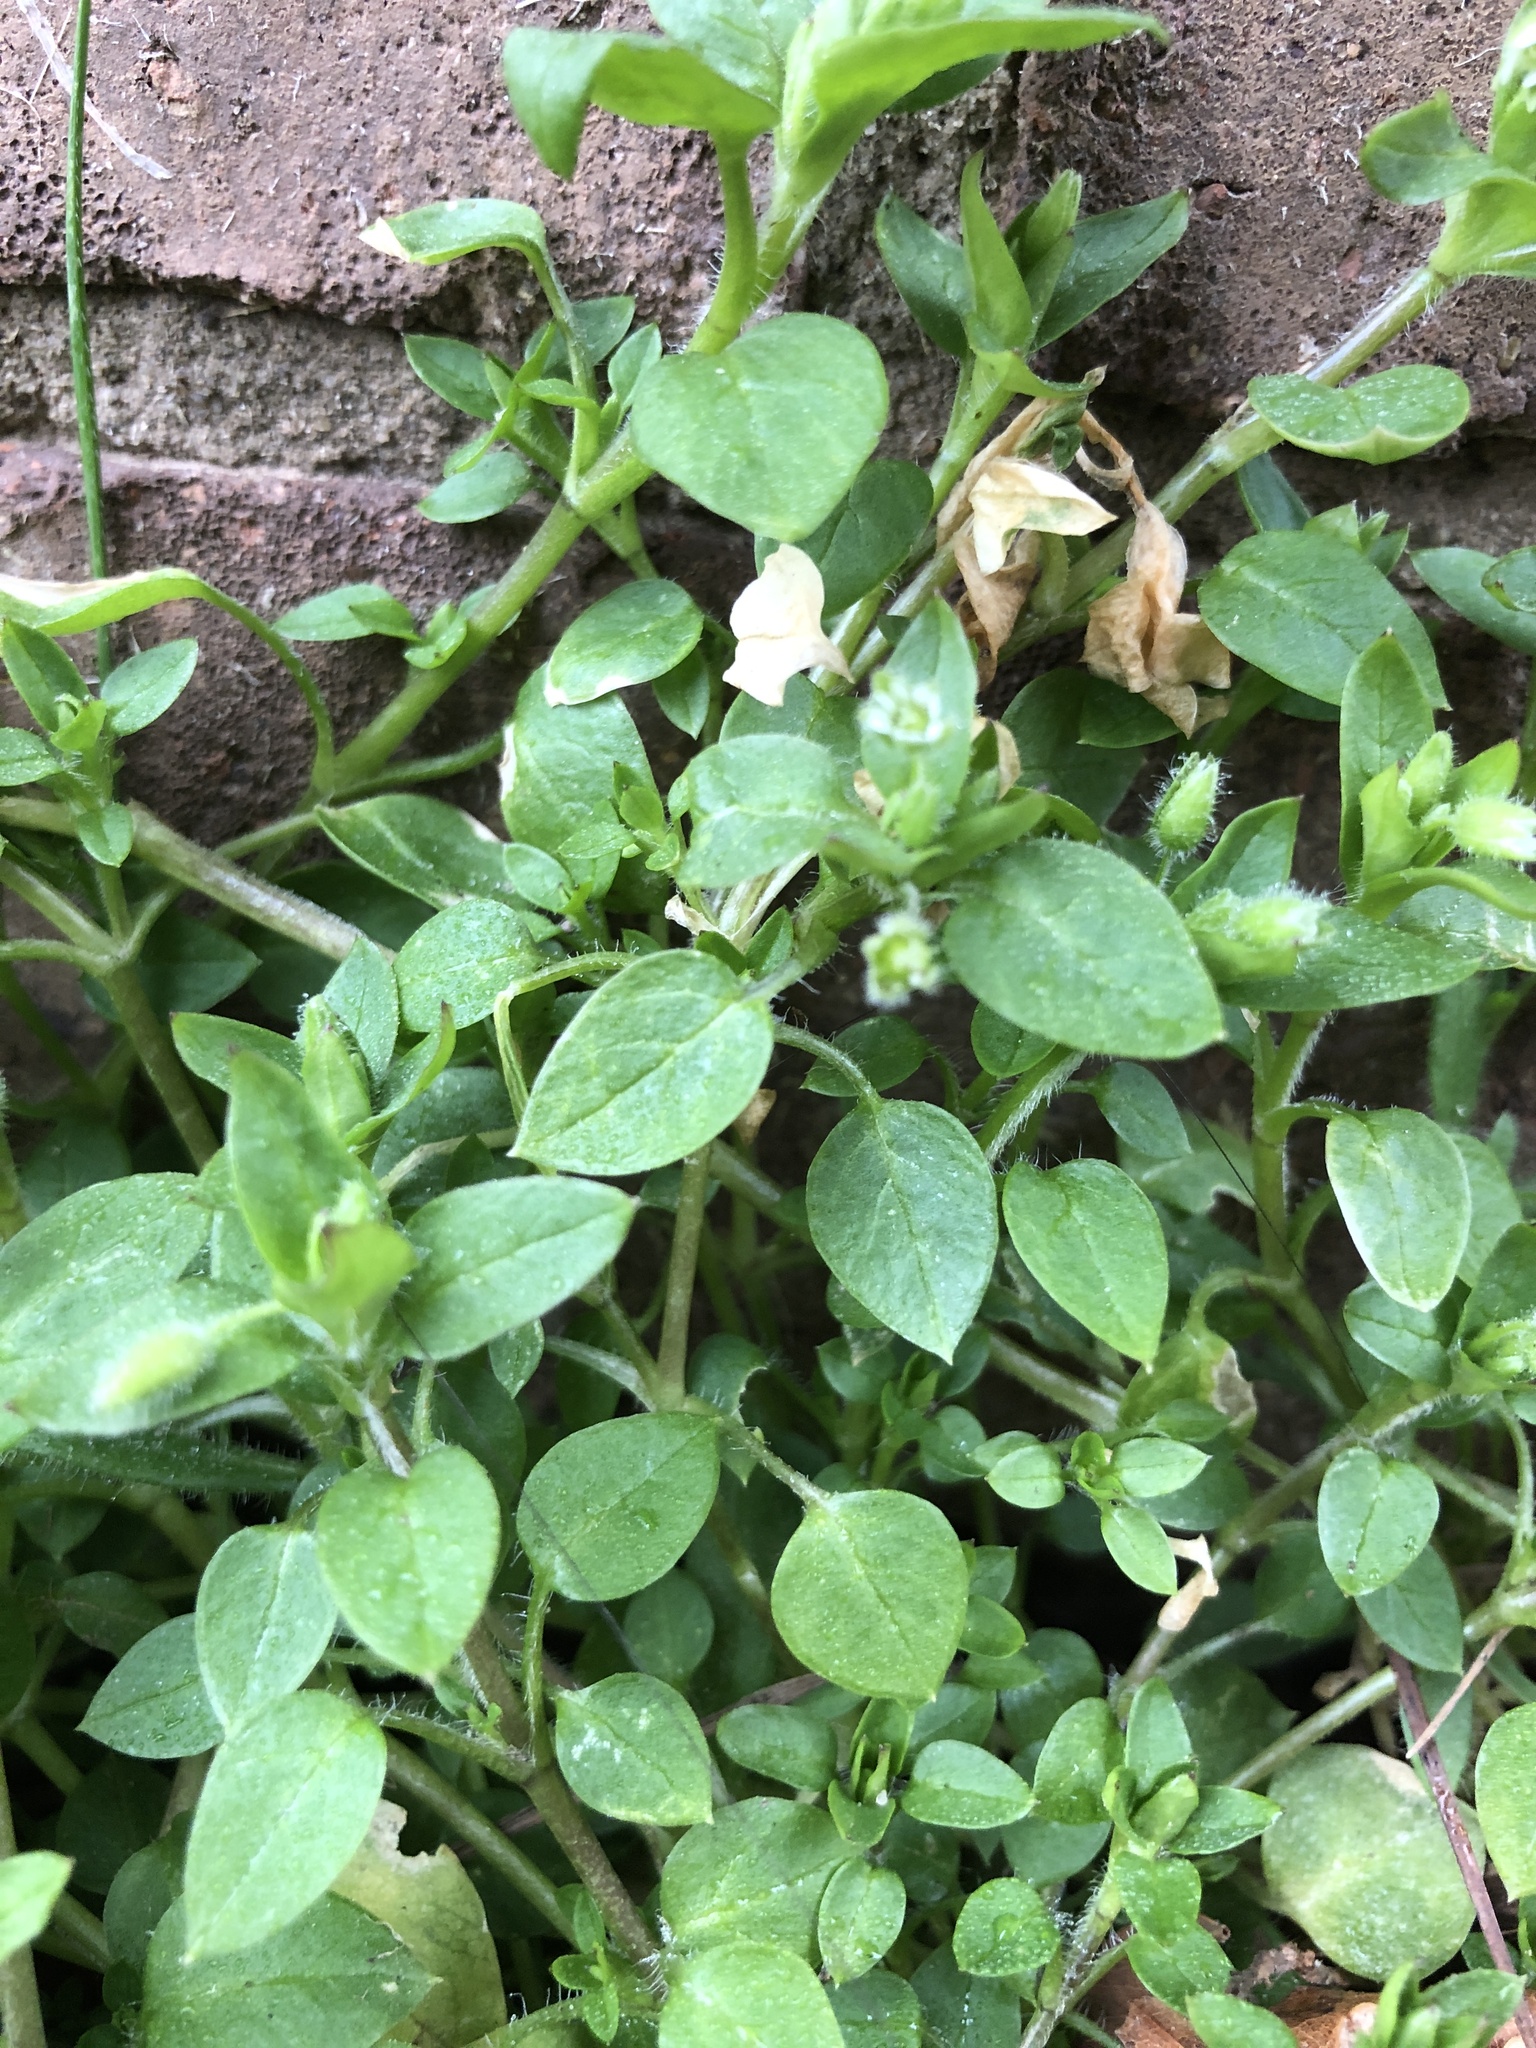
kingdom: Plantae
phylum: Tracheophyta
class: Magnoliopsida
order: Caryophyllales
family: Caryophyllaceae
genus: Stellaria
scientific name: Stellaria media
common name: Common chickweed
